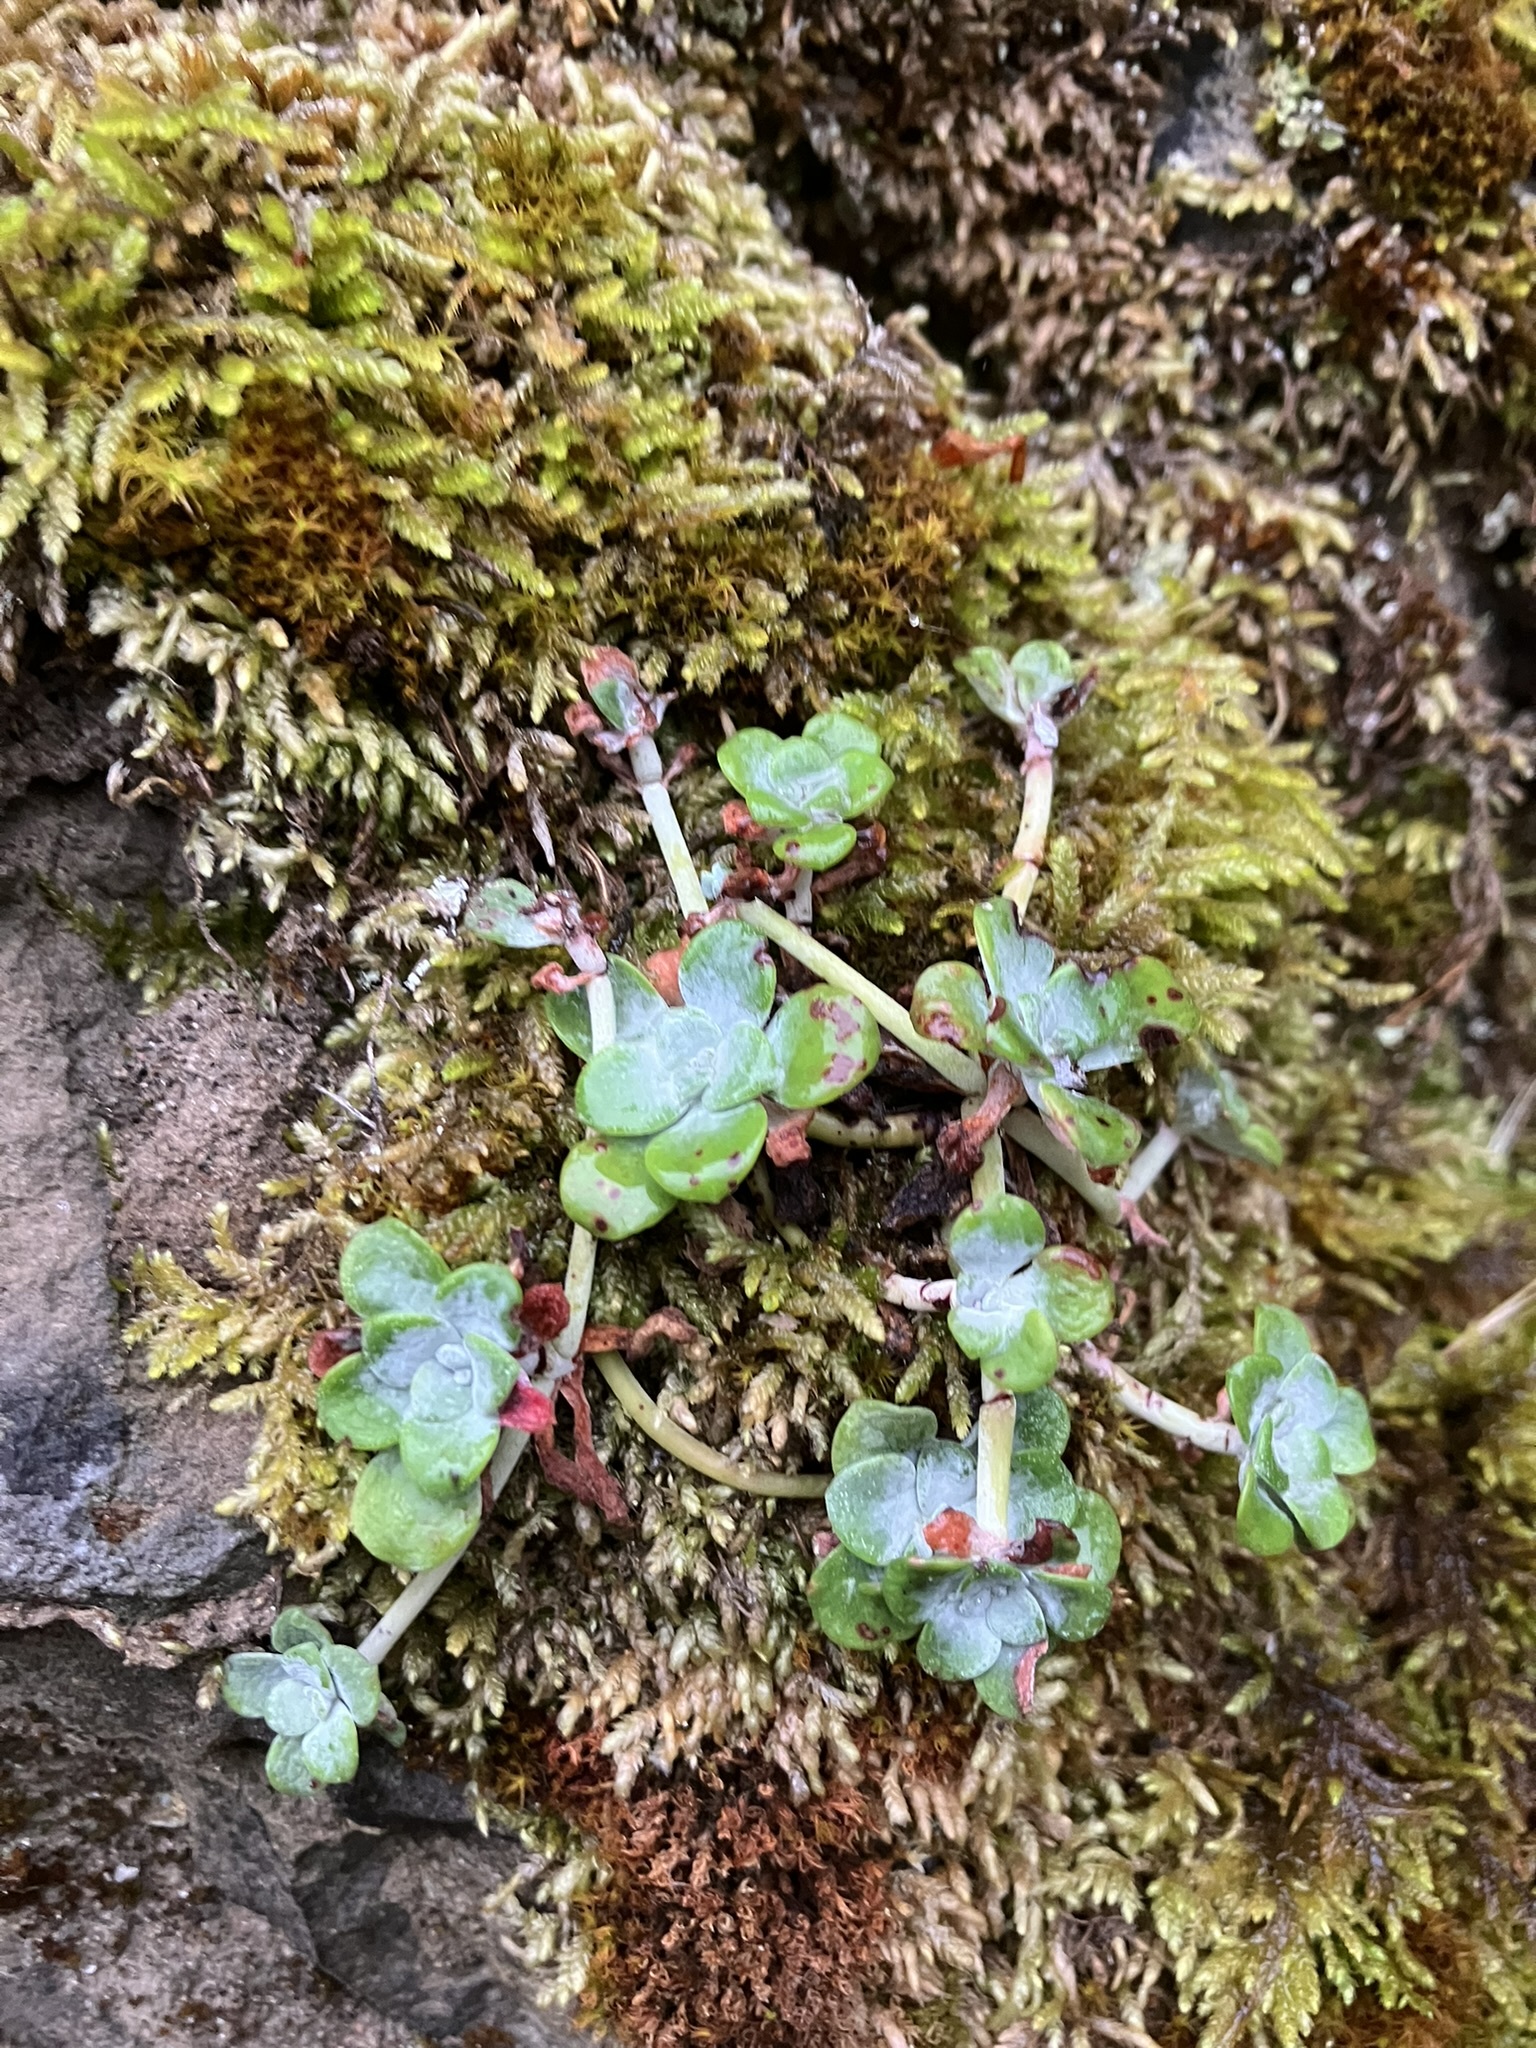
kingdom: Plantae
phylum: Tracheophyta
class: Magnoliopsida
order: Saxifragales
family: Crassulaceae
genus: Sedum
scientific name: Sedum spathulifolium
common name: Colorado stonecrop
